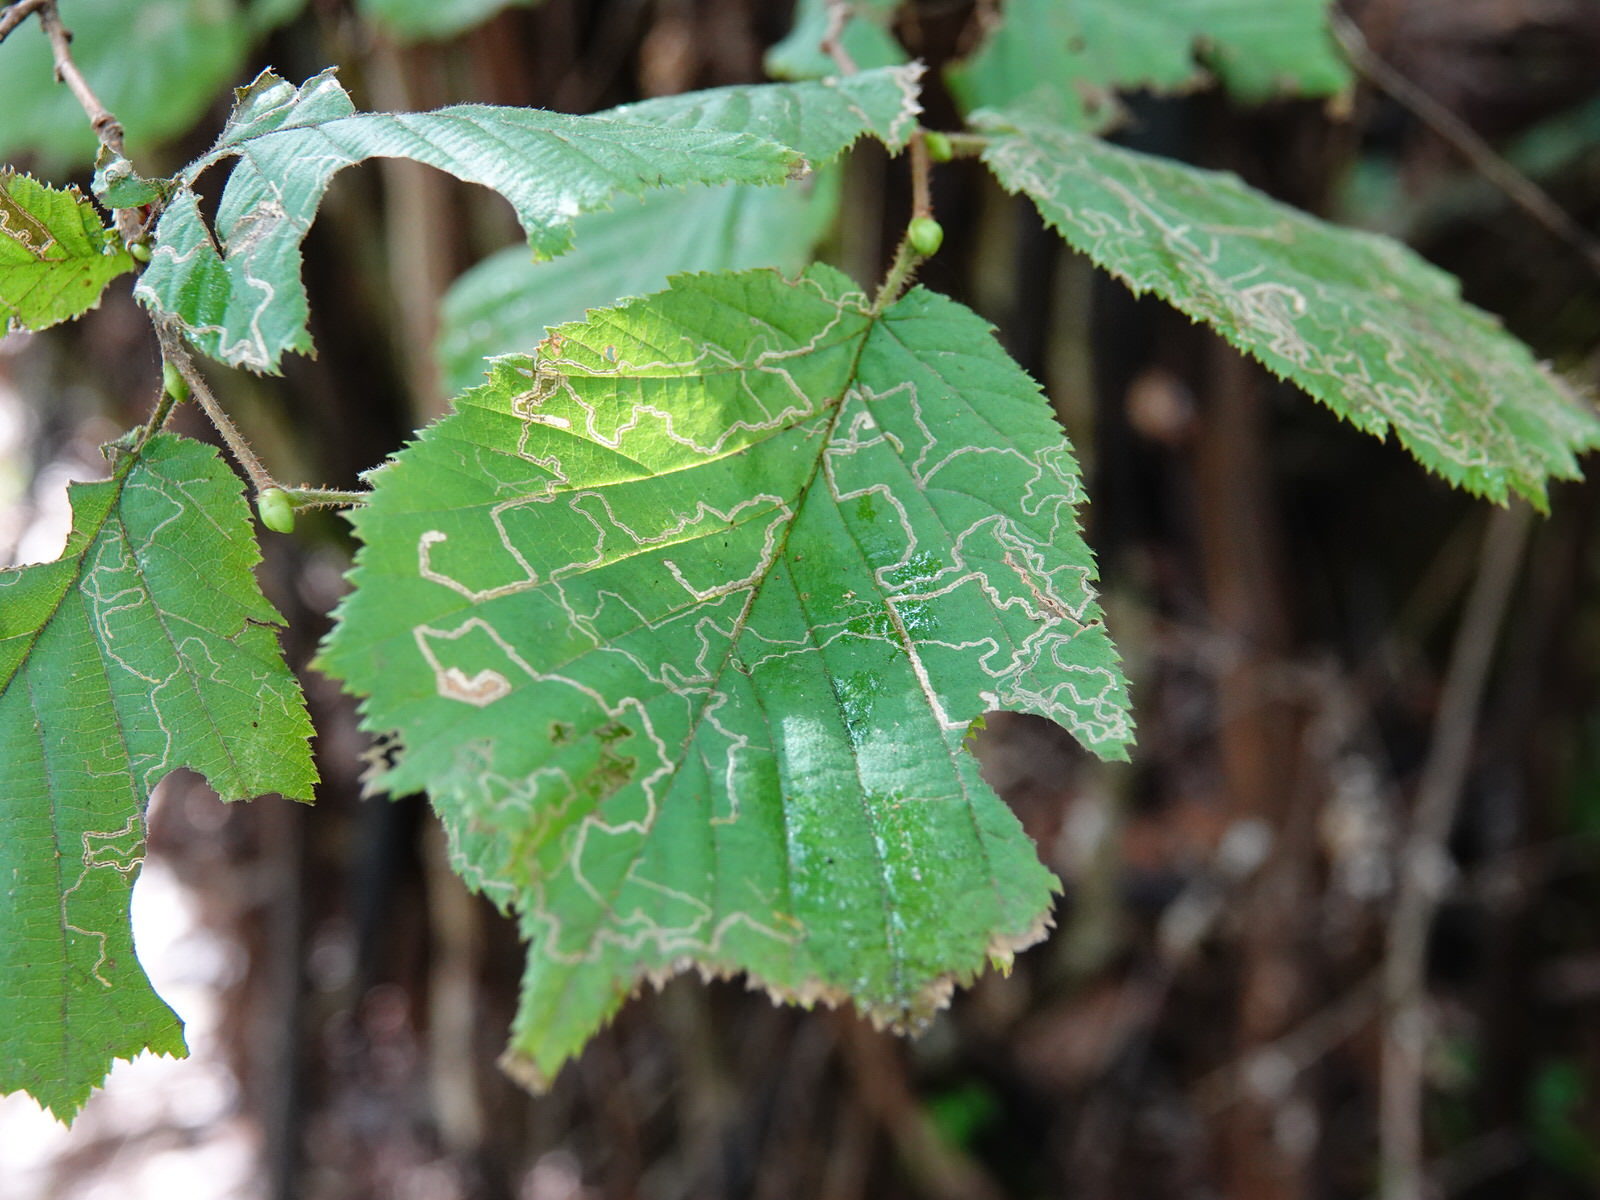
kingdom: Animalia
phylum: Arthropoda
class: Insecta
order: Lepidoptera
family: Nepticulidae
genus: Stigmella
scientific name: Stigmella microtheriella
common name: Nut-tree pigmy
